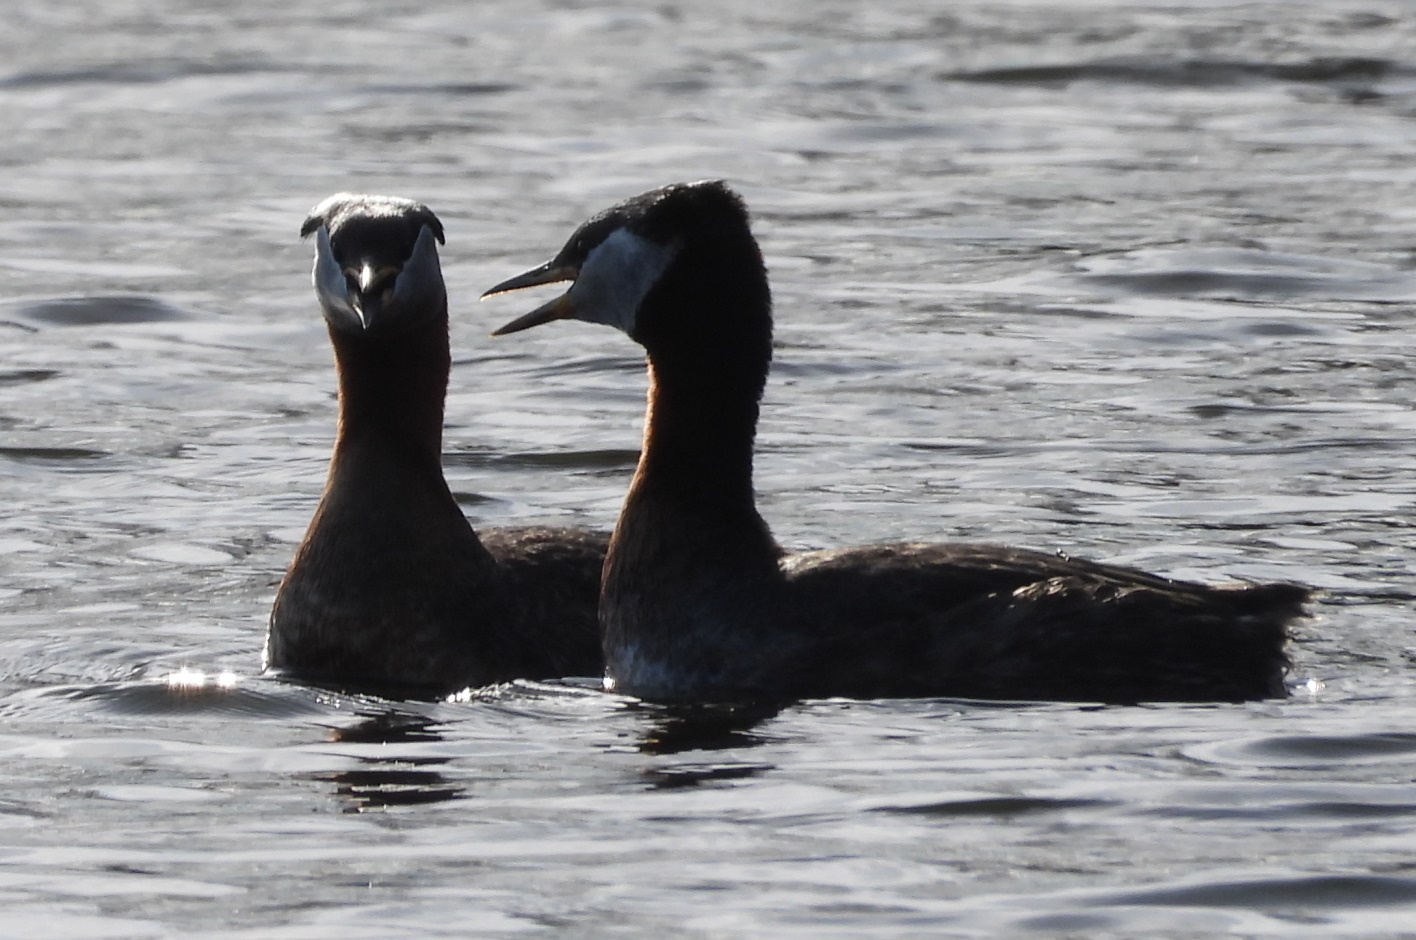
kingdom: Animalia
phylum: Chordata
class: Aves
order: Podicipediformes
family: Podicipedidae
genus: Podiceps
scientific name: Podiceps grisegena
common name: Red-necked grebe
